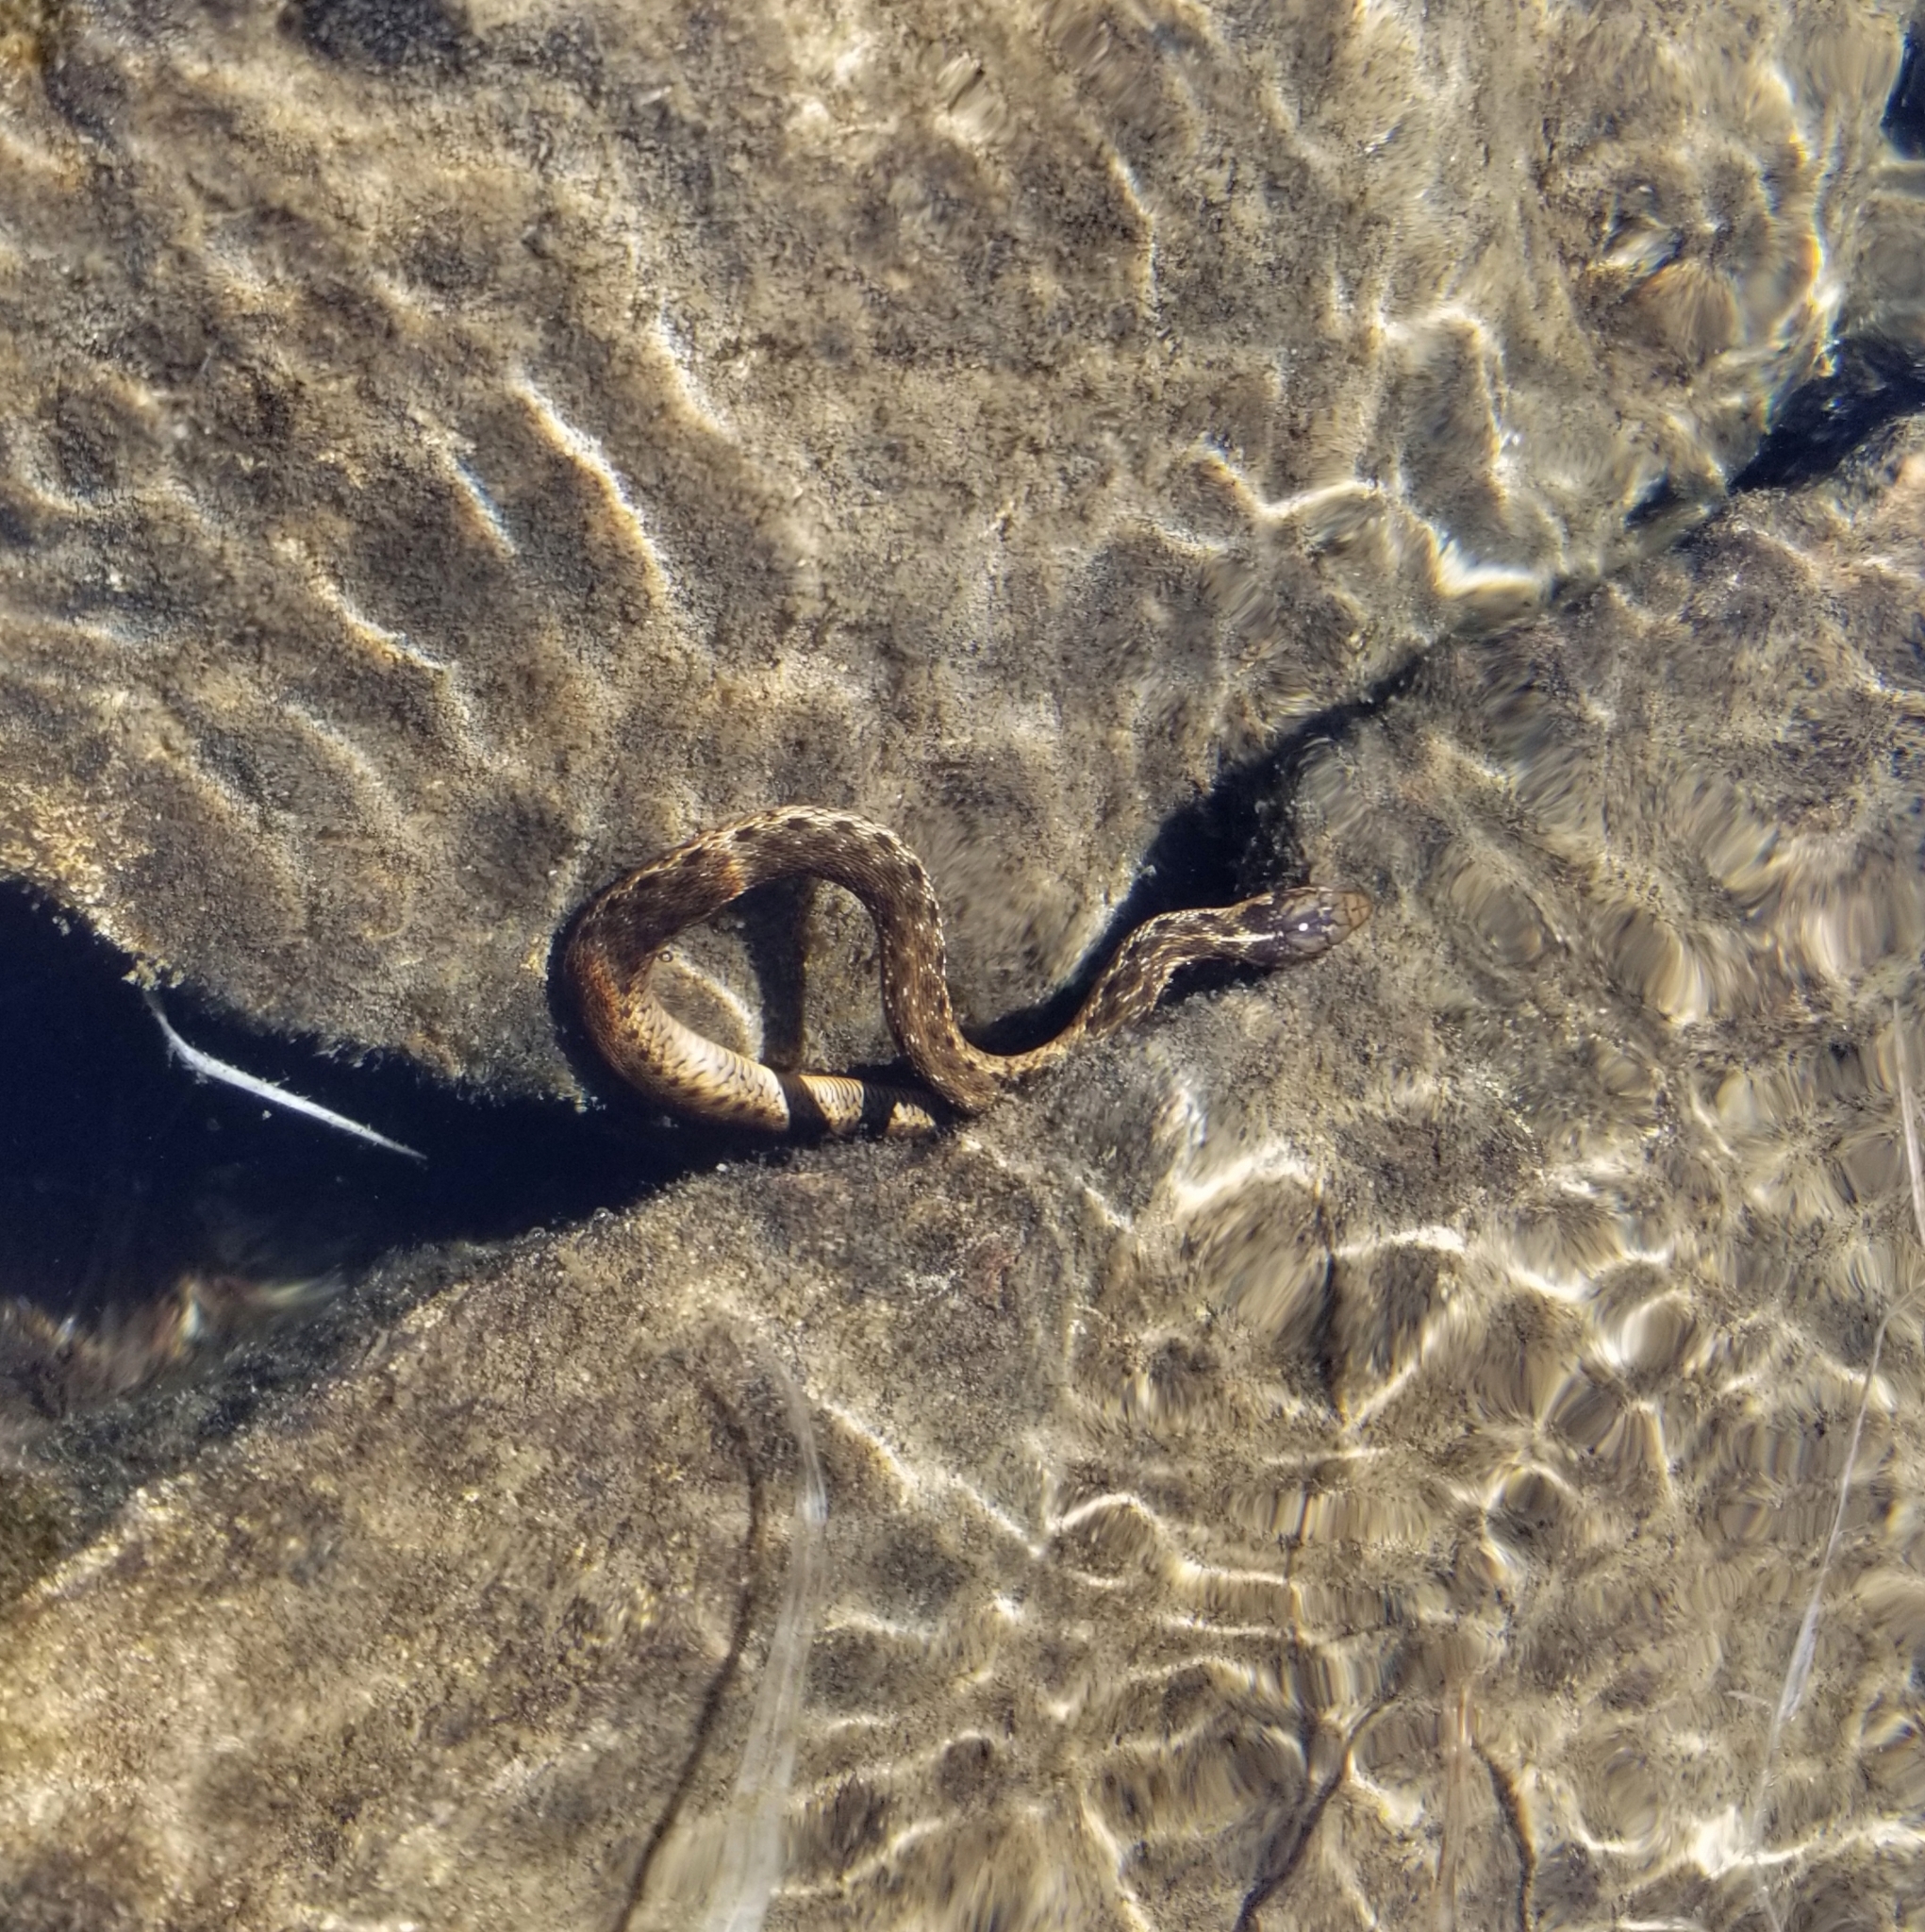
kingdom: Animalia
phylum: Chordata
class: Squamata
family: Colubridae
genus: Thamnophis
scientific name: Thamnophis couchii
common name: Western aquatic garter snake
